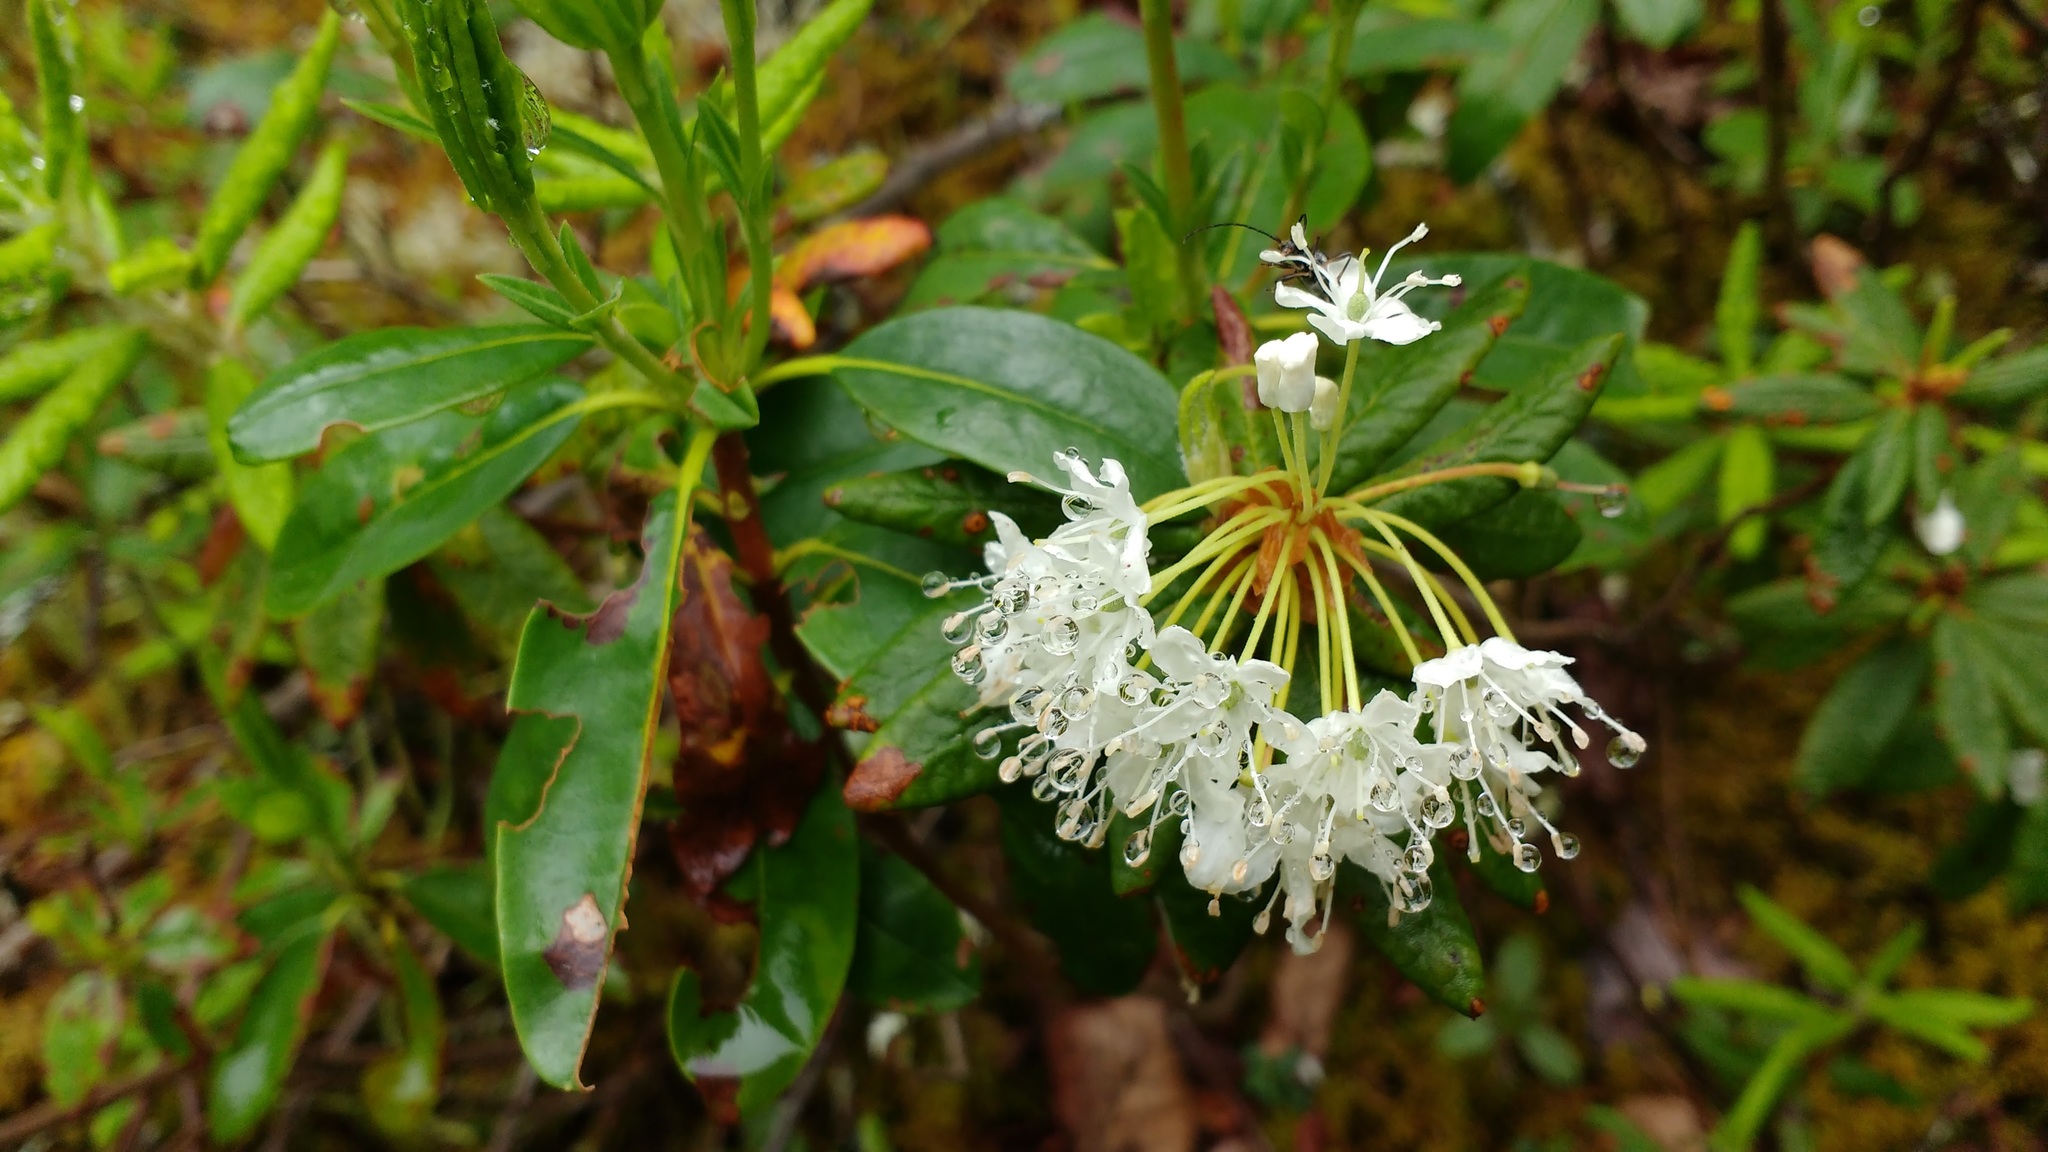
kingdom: Plantae
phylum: Tracheophyta
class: Magnoliopsida
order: Ericales
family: Ericaceae
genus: Rhododendron
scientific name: Rhododendron groenlandicum
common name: Bog labrador tea
